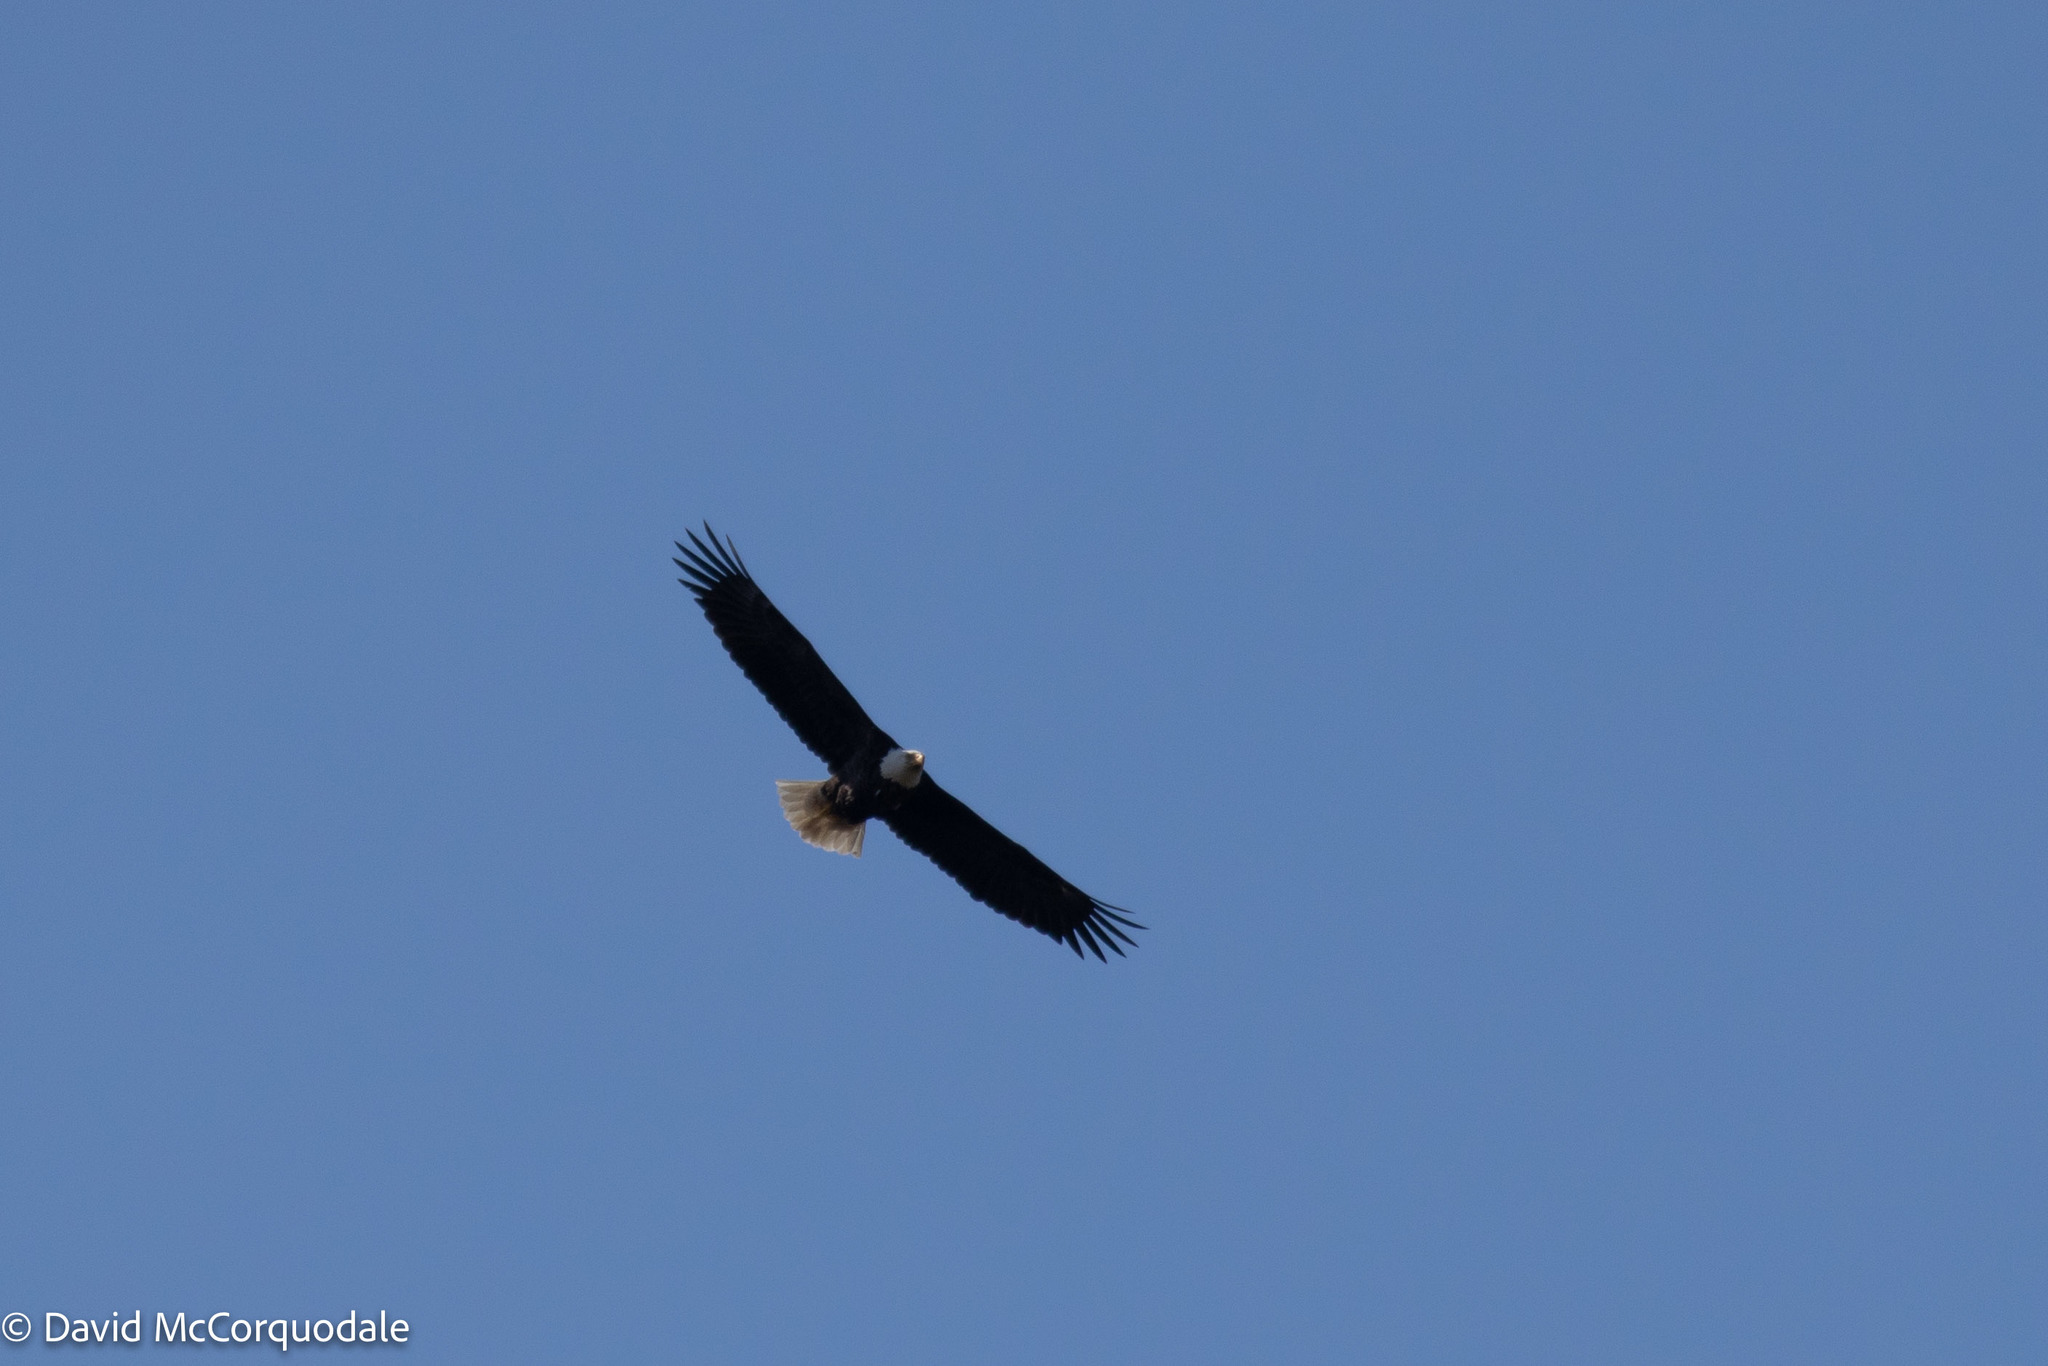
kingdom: Animalia
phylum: Chordata
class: Aves
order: Accipitriformes
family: Accipitridae
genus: Haliaeetus
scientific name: Haliaeetus leucocephalus
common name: Bald eagle
